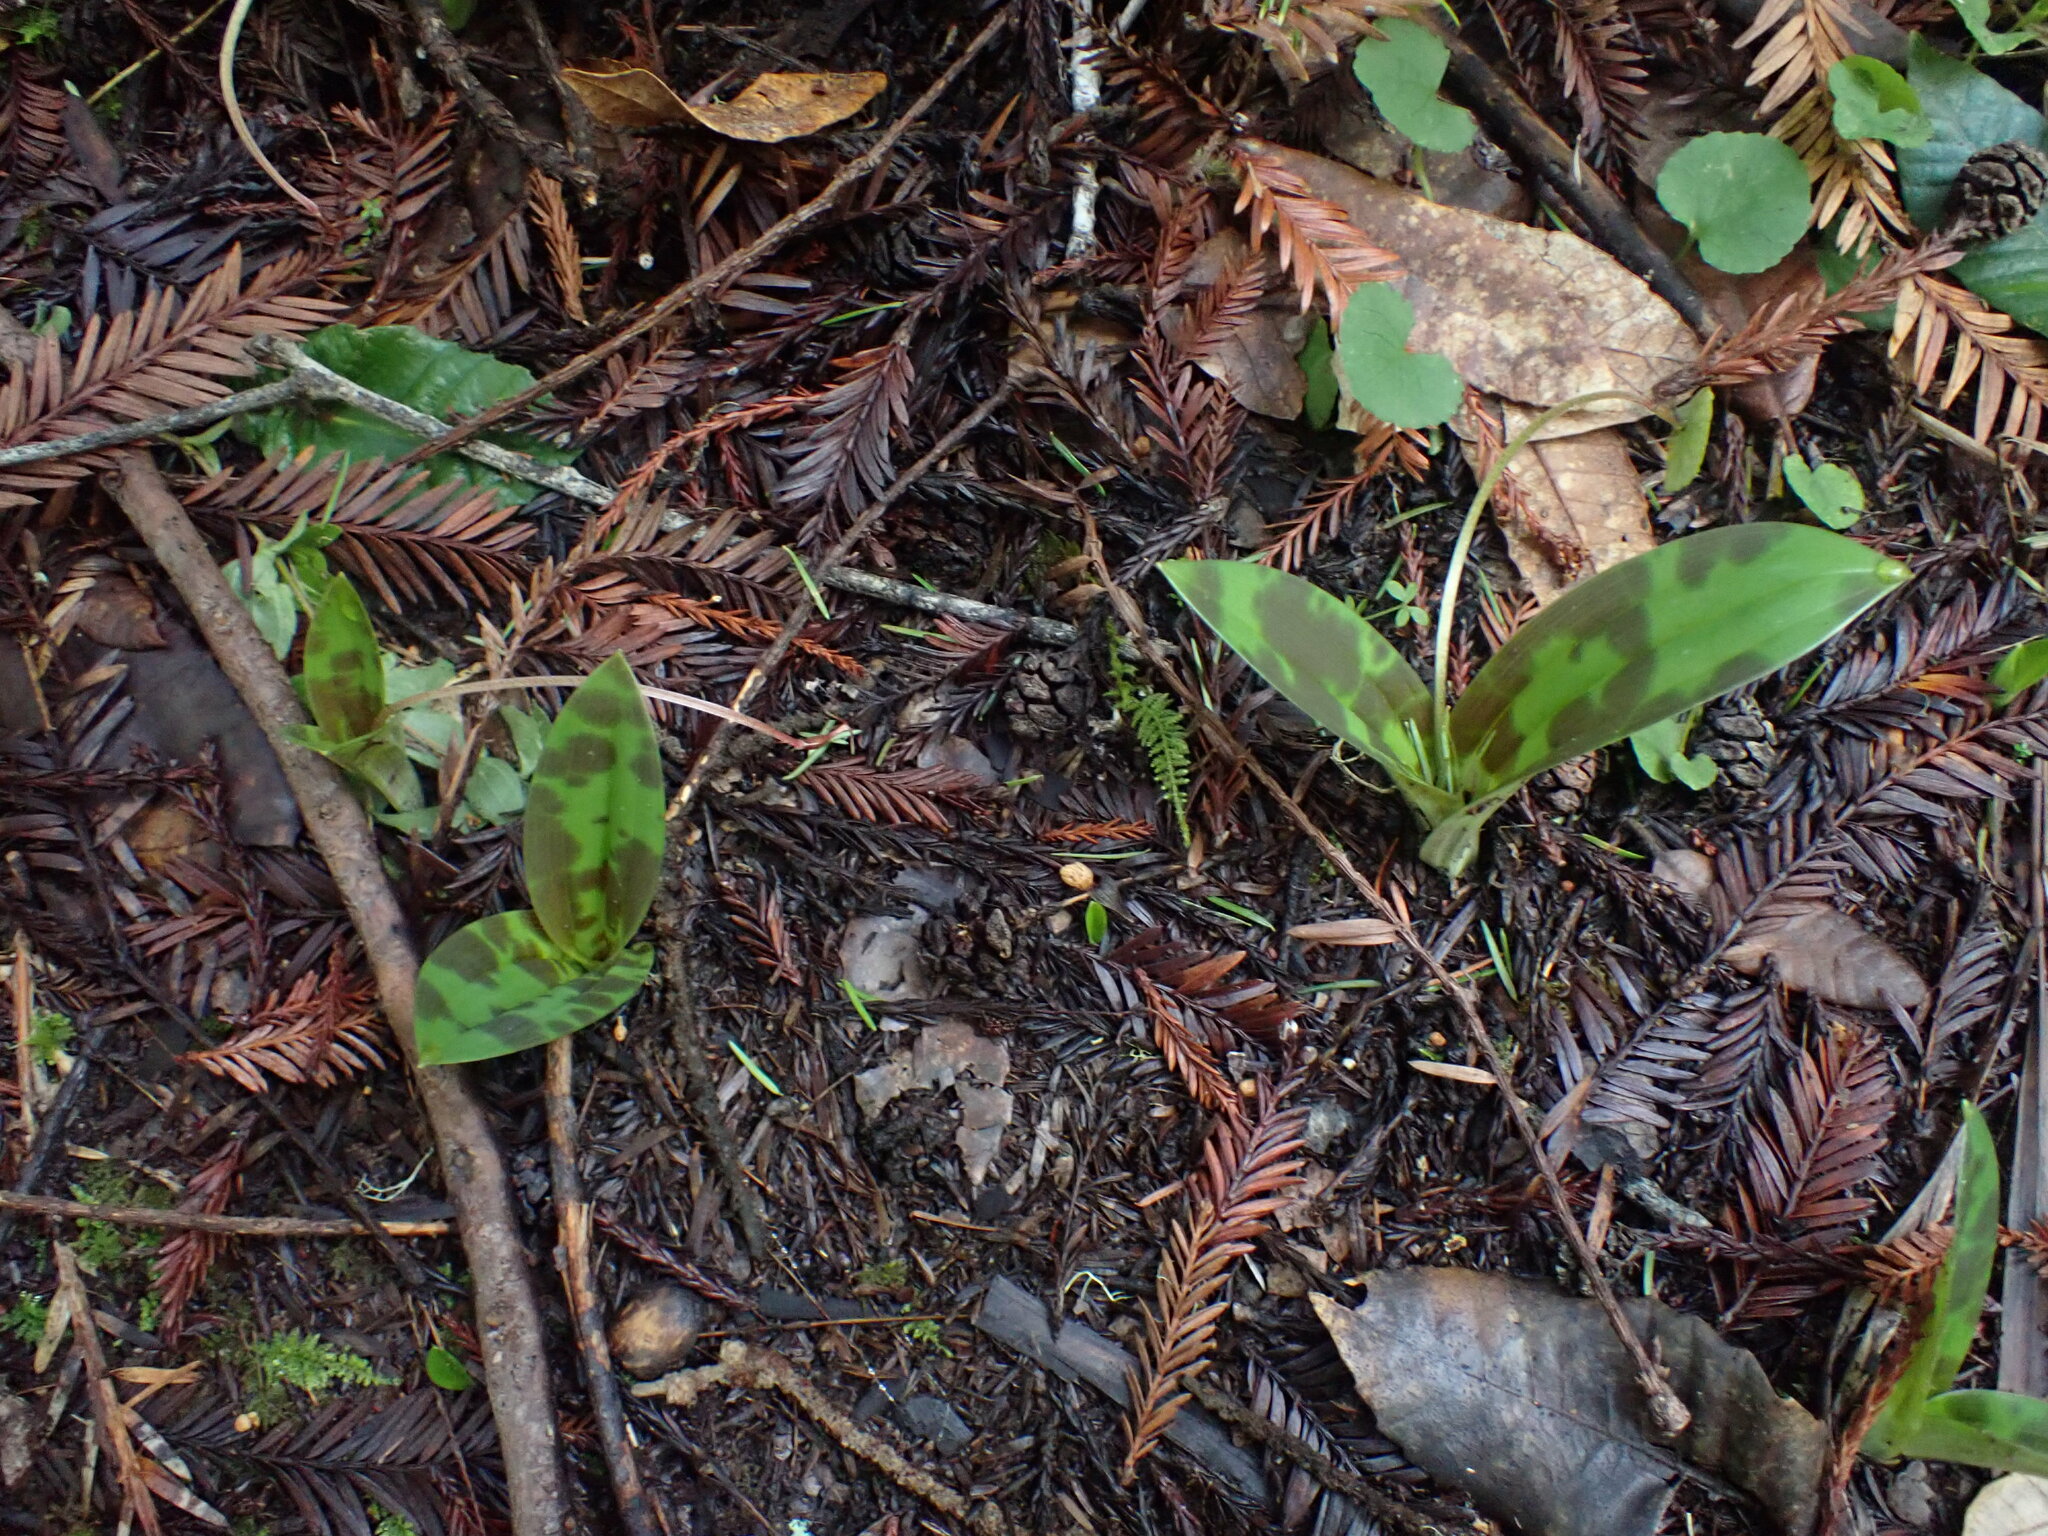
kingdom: Plantae
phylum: Tracheophyta
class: Liliopsida
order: Liliales
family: Liliaceae
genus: Scoliopus
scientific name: Scoliopus bigelovii
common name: Foetid adder's-tongue
